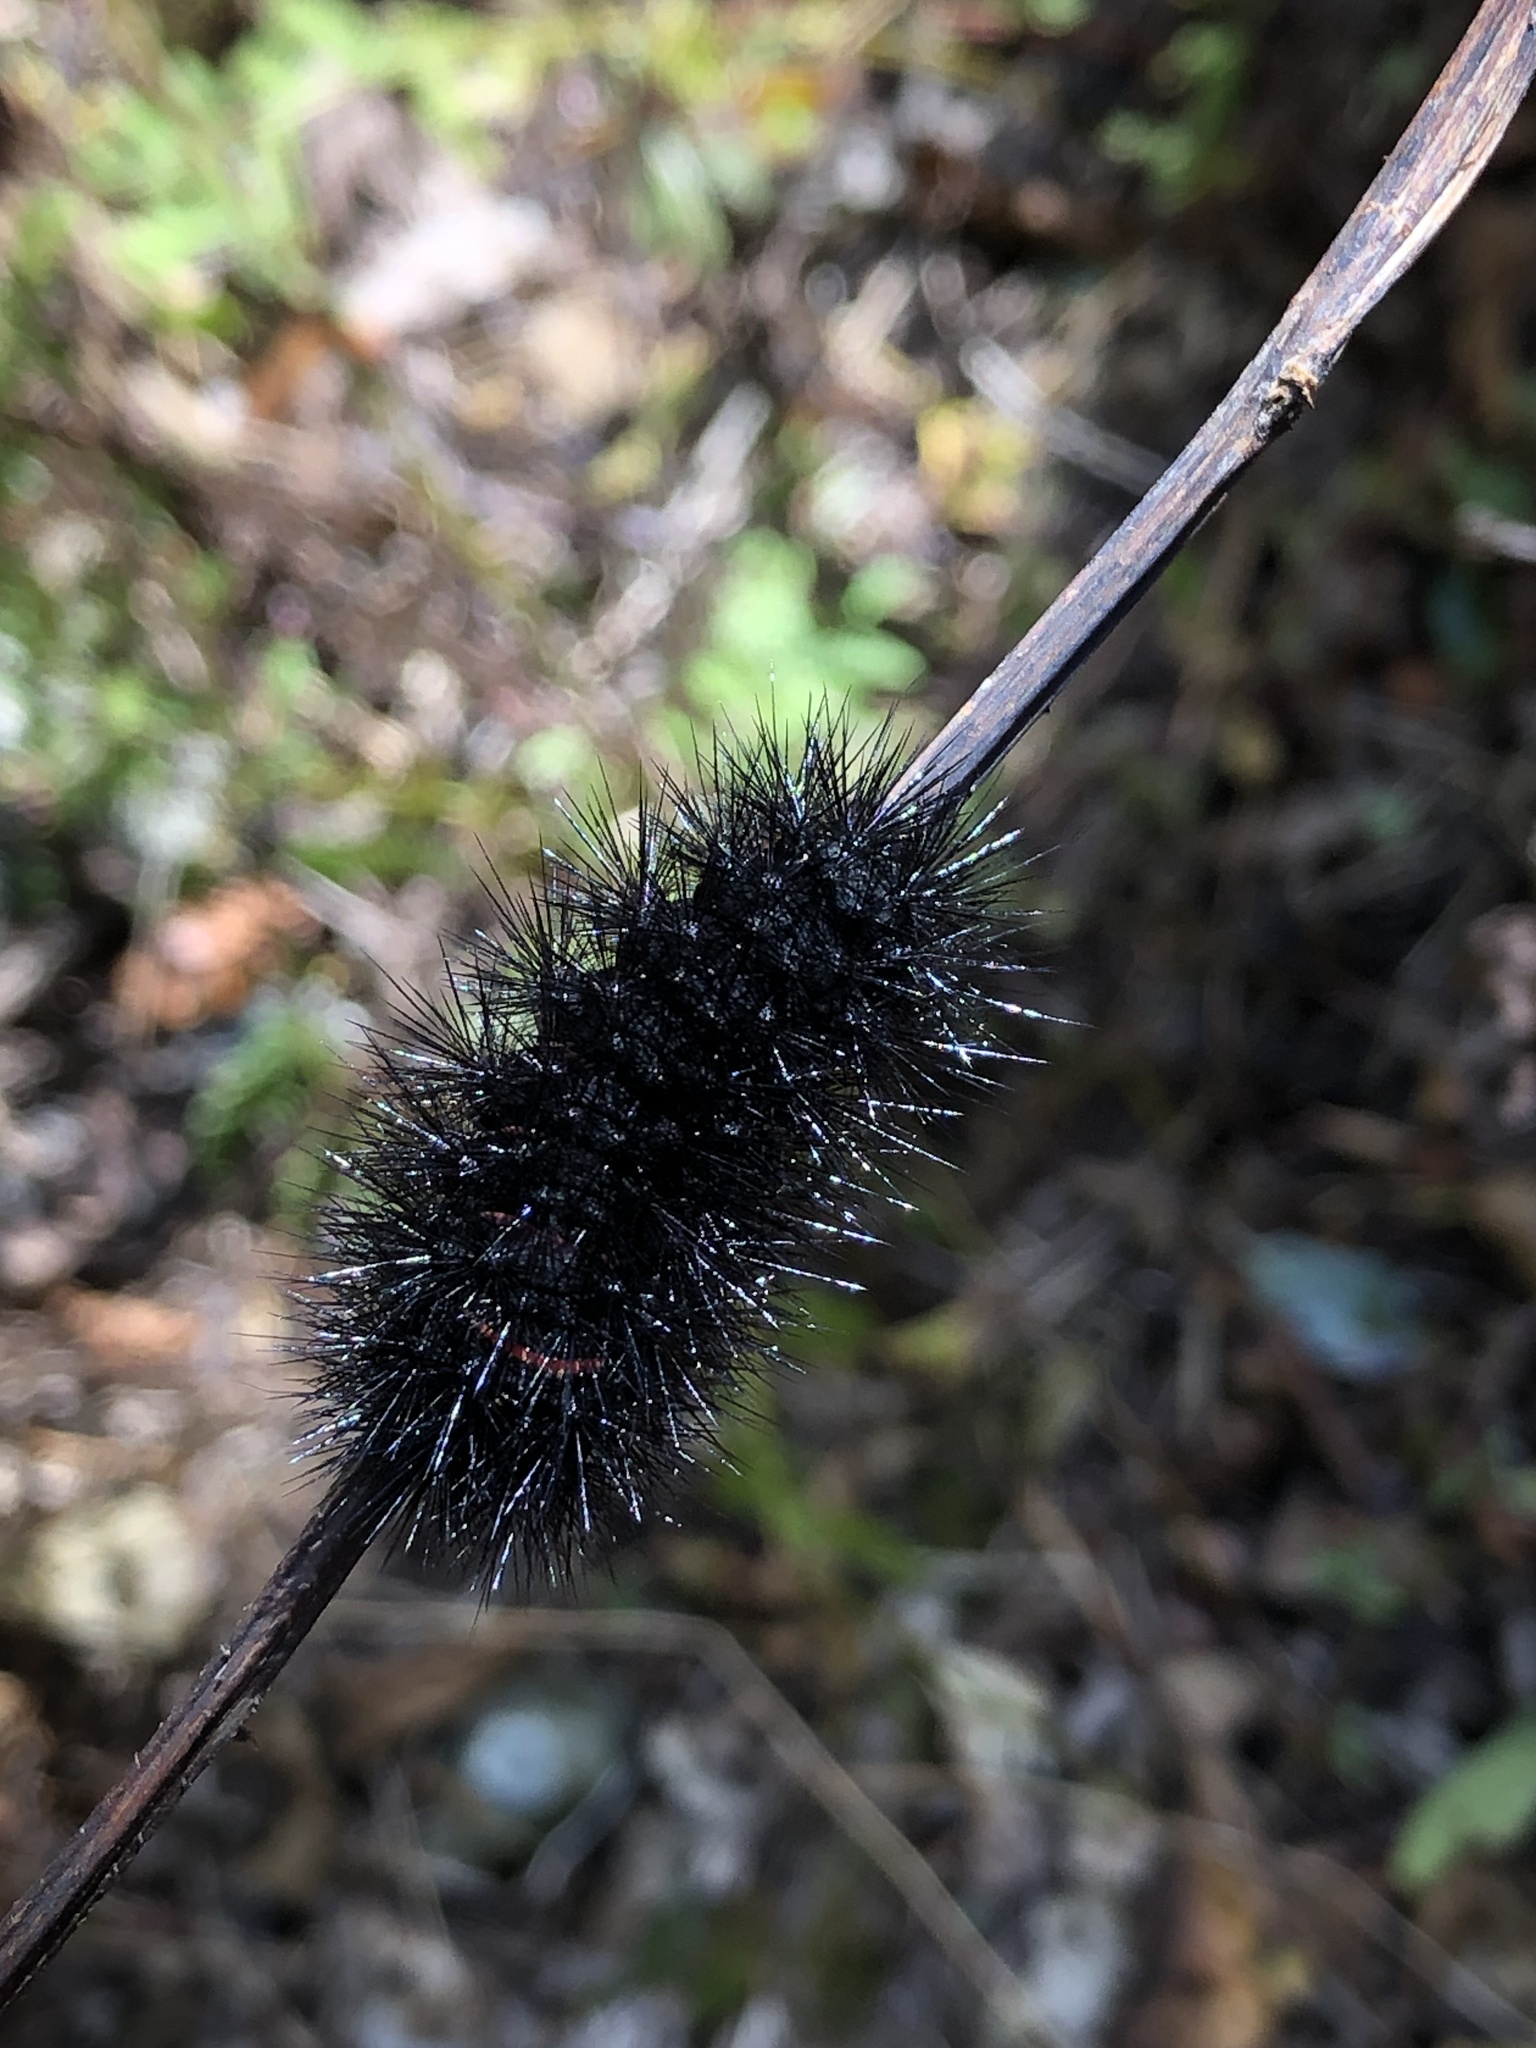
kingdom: Animalia
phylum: Arthropoda
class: Insecta
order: Lepidoptera
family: Erebidae
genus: Hypercompe
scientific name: Hypercompe scribonia
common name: Giant leopard moth
